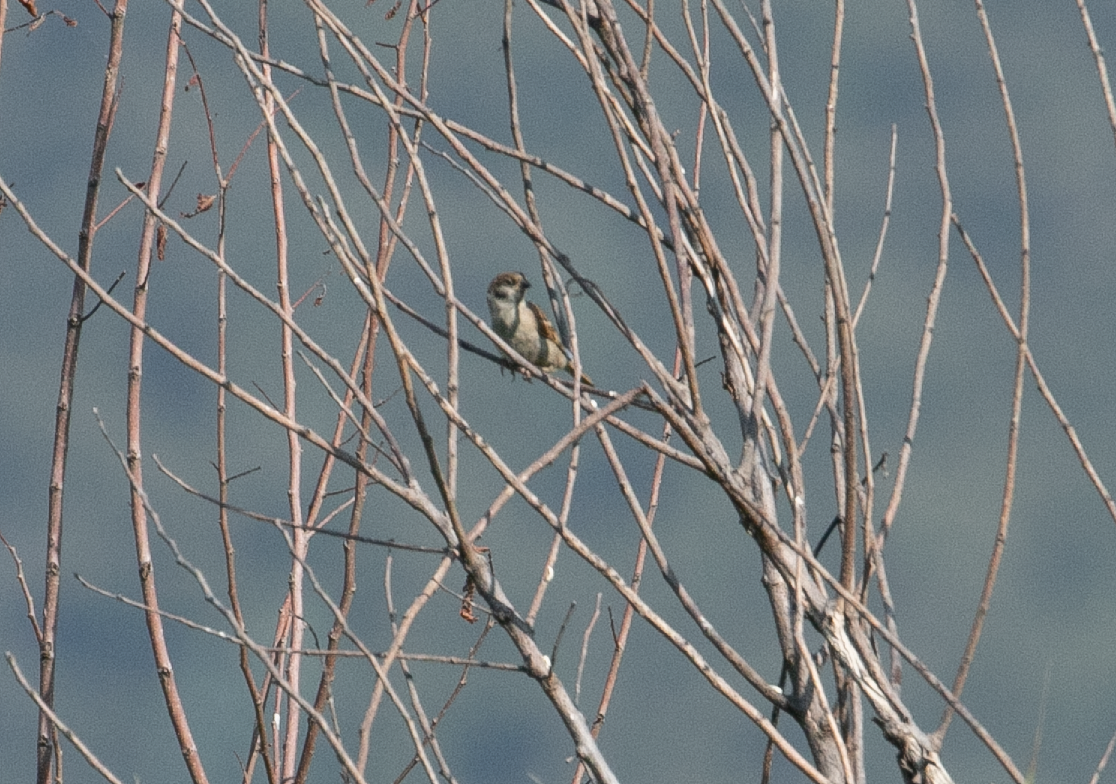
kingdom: Animalia
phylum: Chordata
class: Aves
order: Passeriformes
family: Passeridae
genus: Passer
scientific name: Passer montanus
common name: Eurasian tree sparrow
